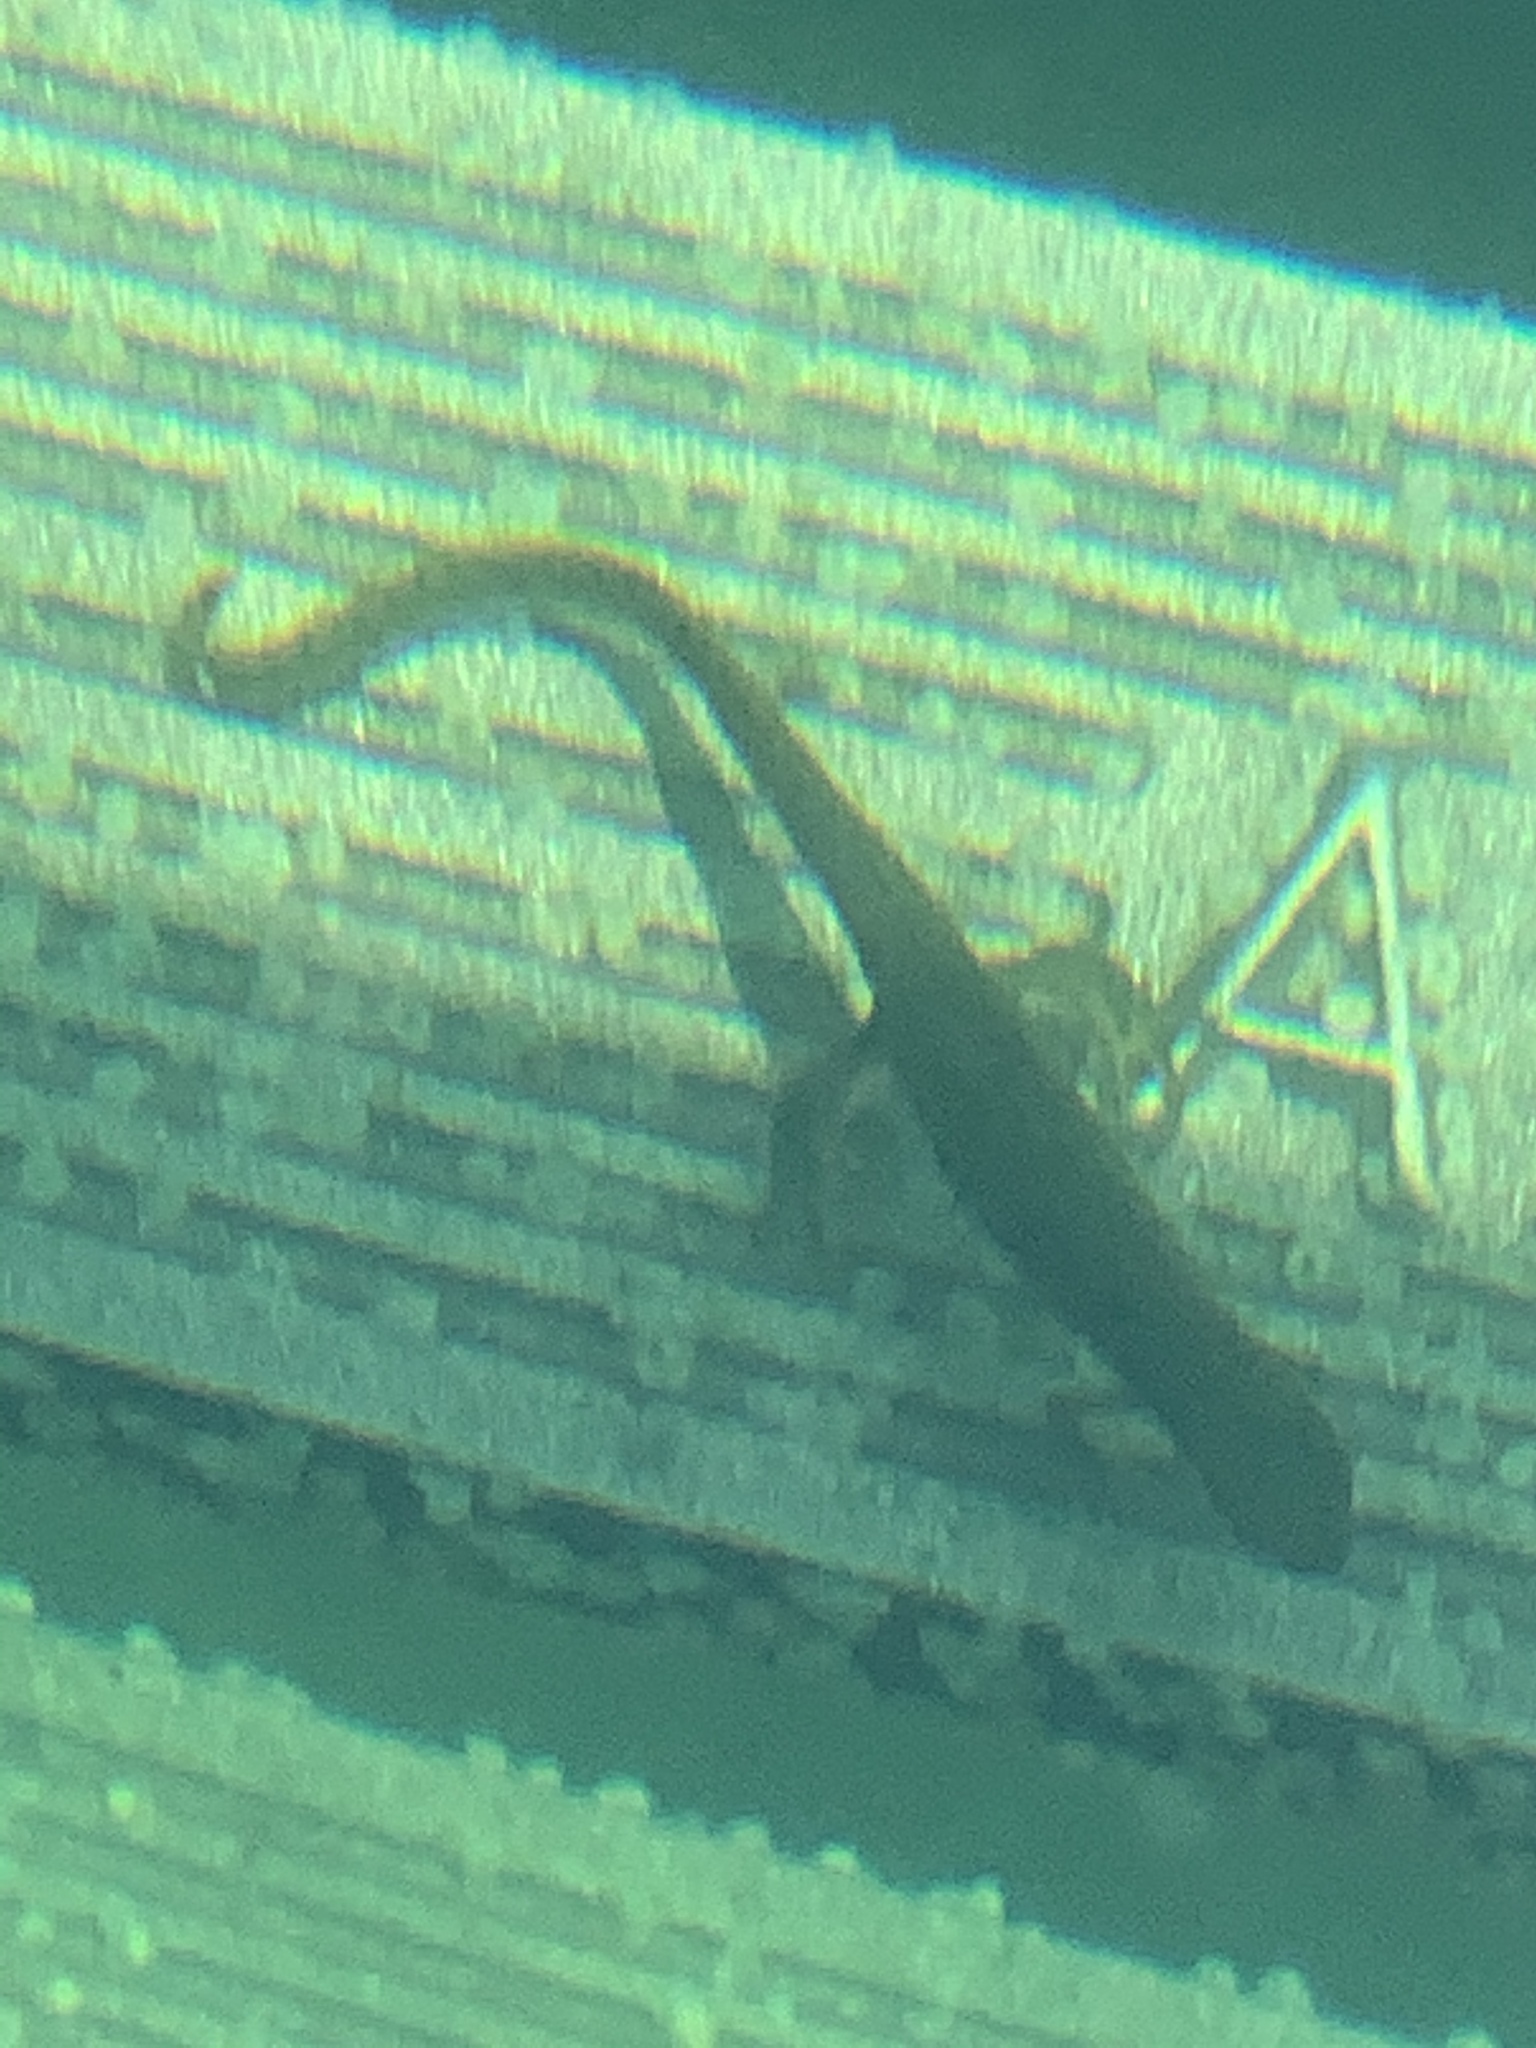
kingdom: Animalia
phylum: Chordata
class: Amphibia
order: Caudata
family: Salamandridae
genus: Notophthalmus
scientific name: Notophthalmus viridescens
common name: Eastern newt
